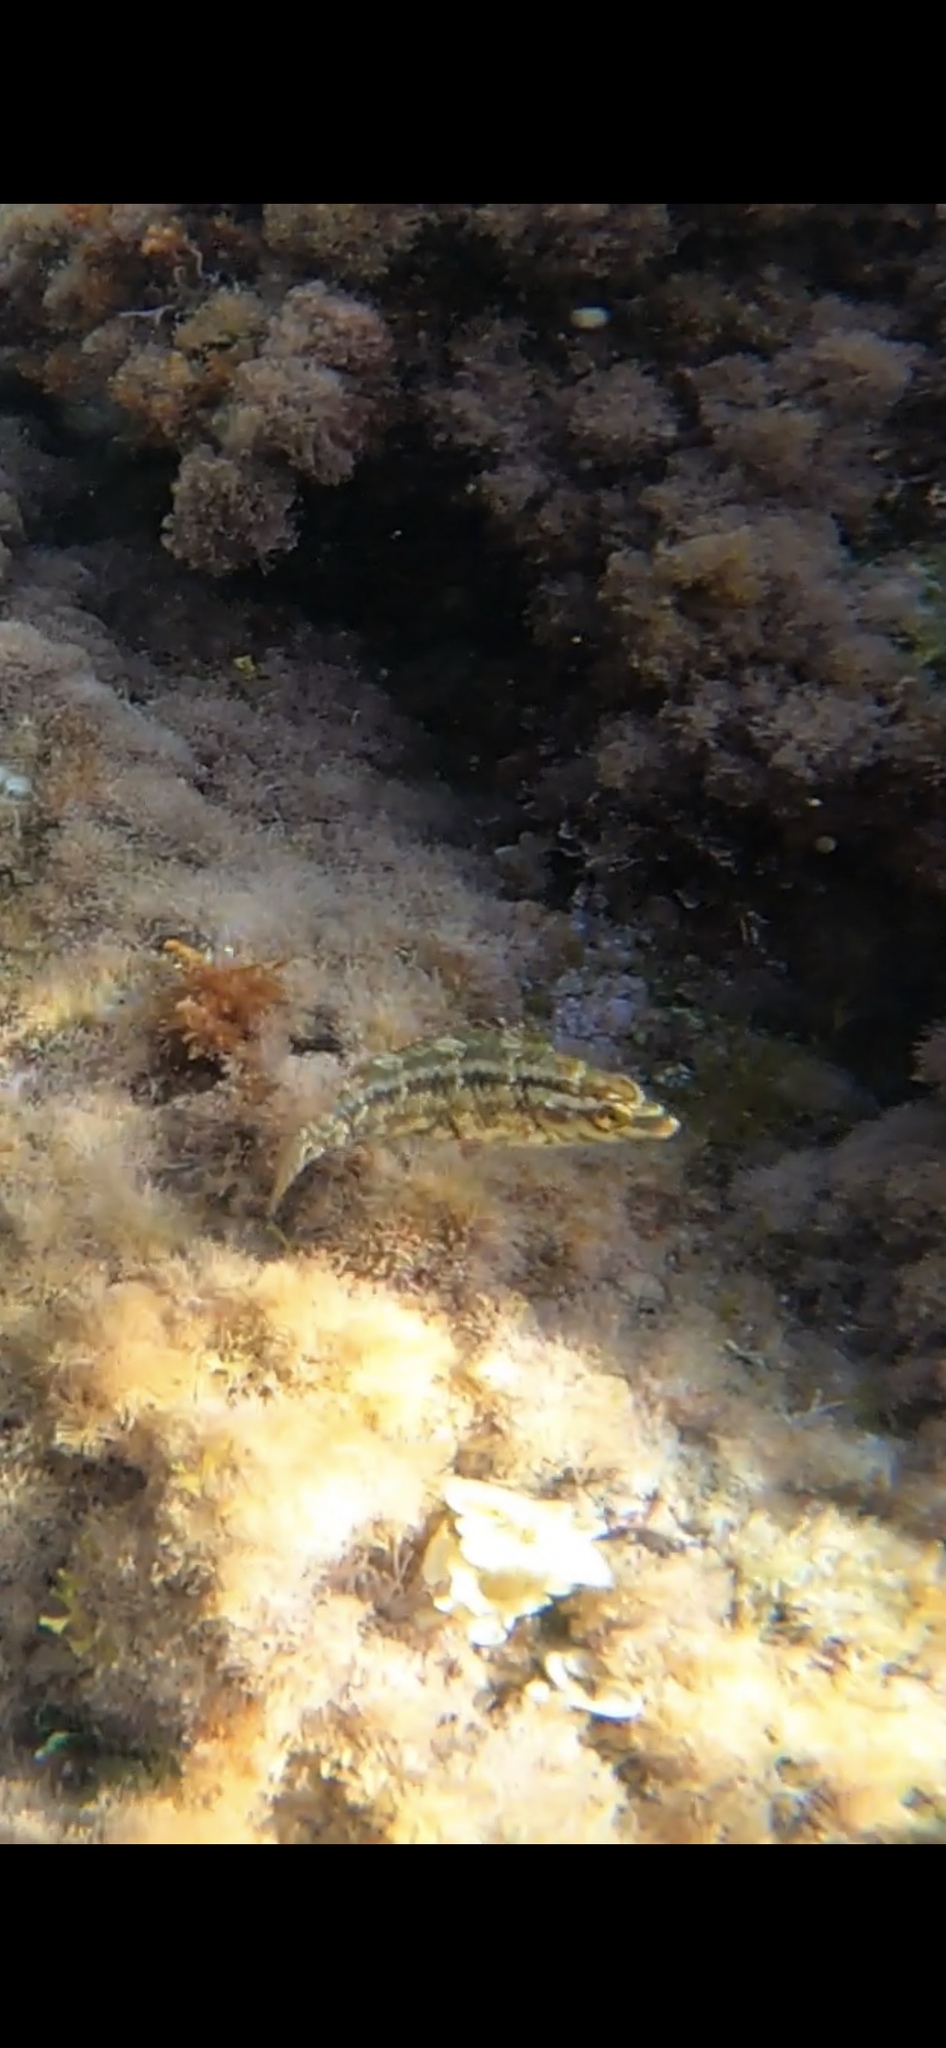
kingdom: Animalia
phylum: Chordata
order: Perciformes
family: Labridae
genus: Symphodus
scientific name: Symphodus roissali
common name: Five-spotted wrasse
